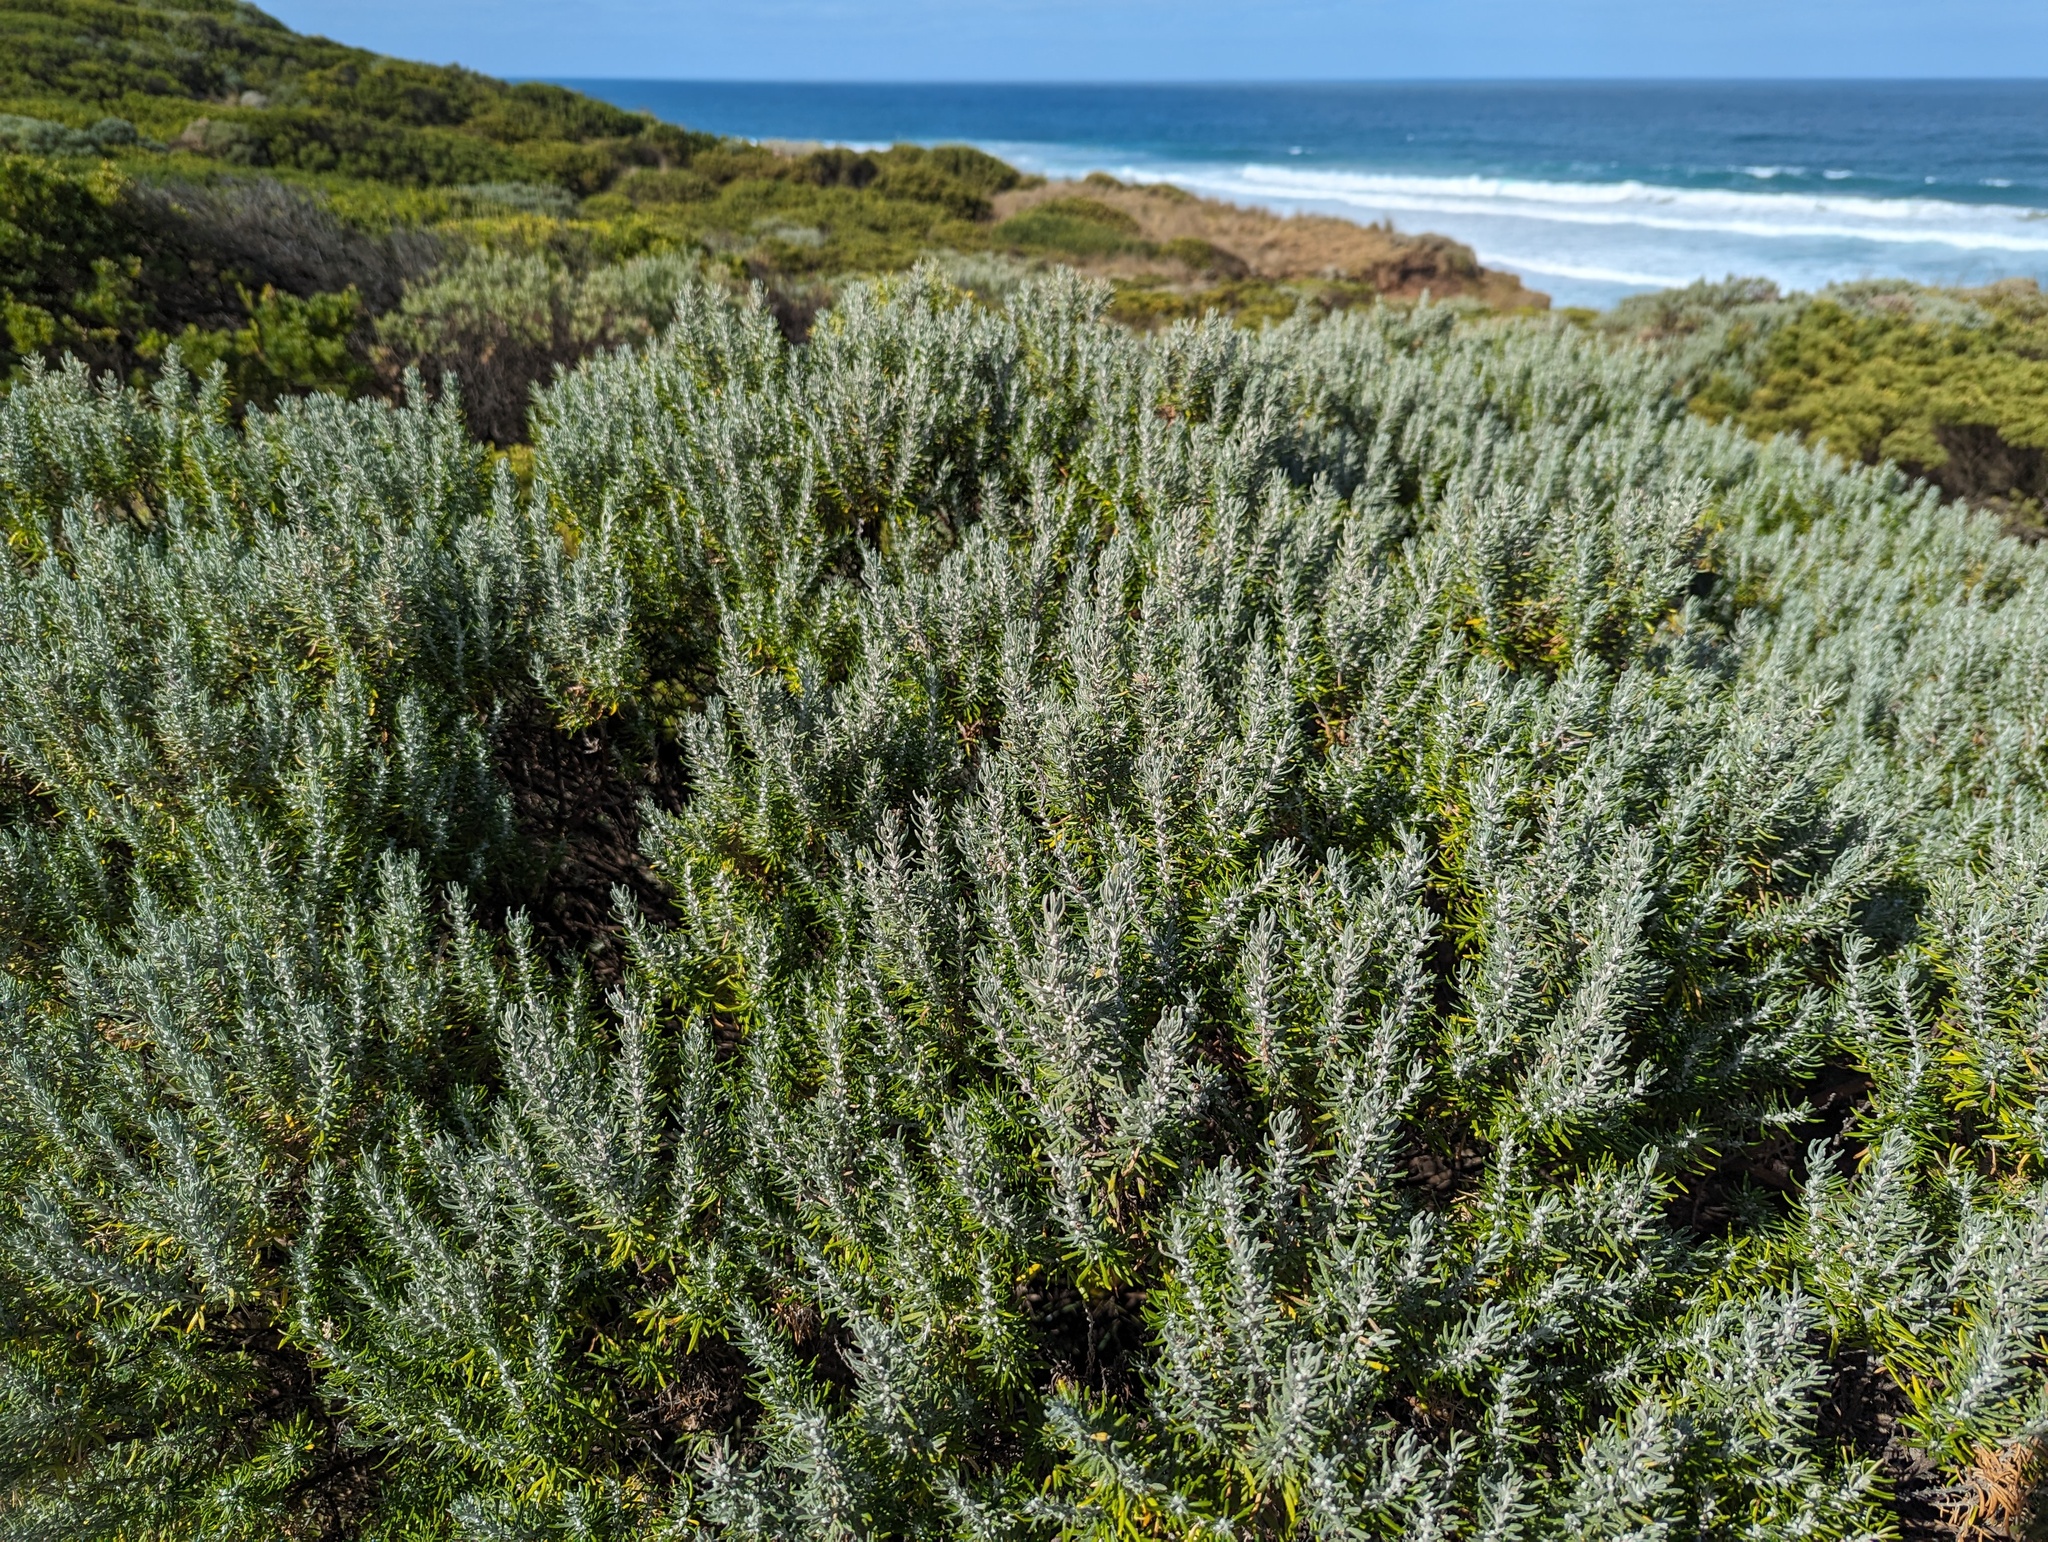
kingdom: Plantae
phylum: Tracheophyta
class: Magnoliopsida
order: Asterales
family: Asteraceae
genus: Olearia
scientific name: Olearia axillaris
